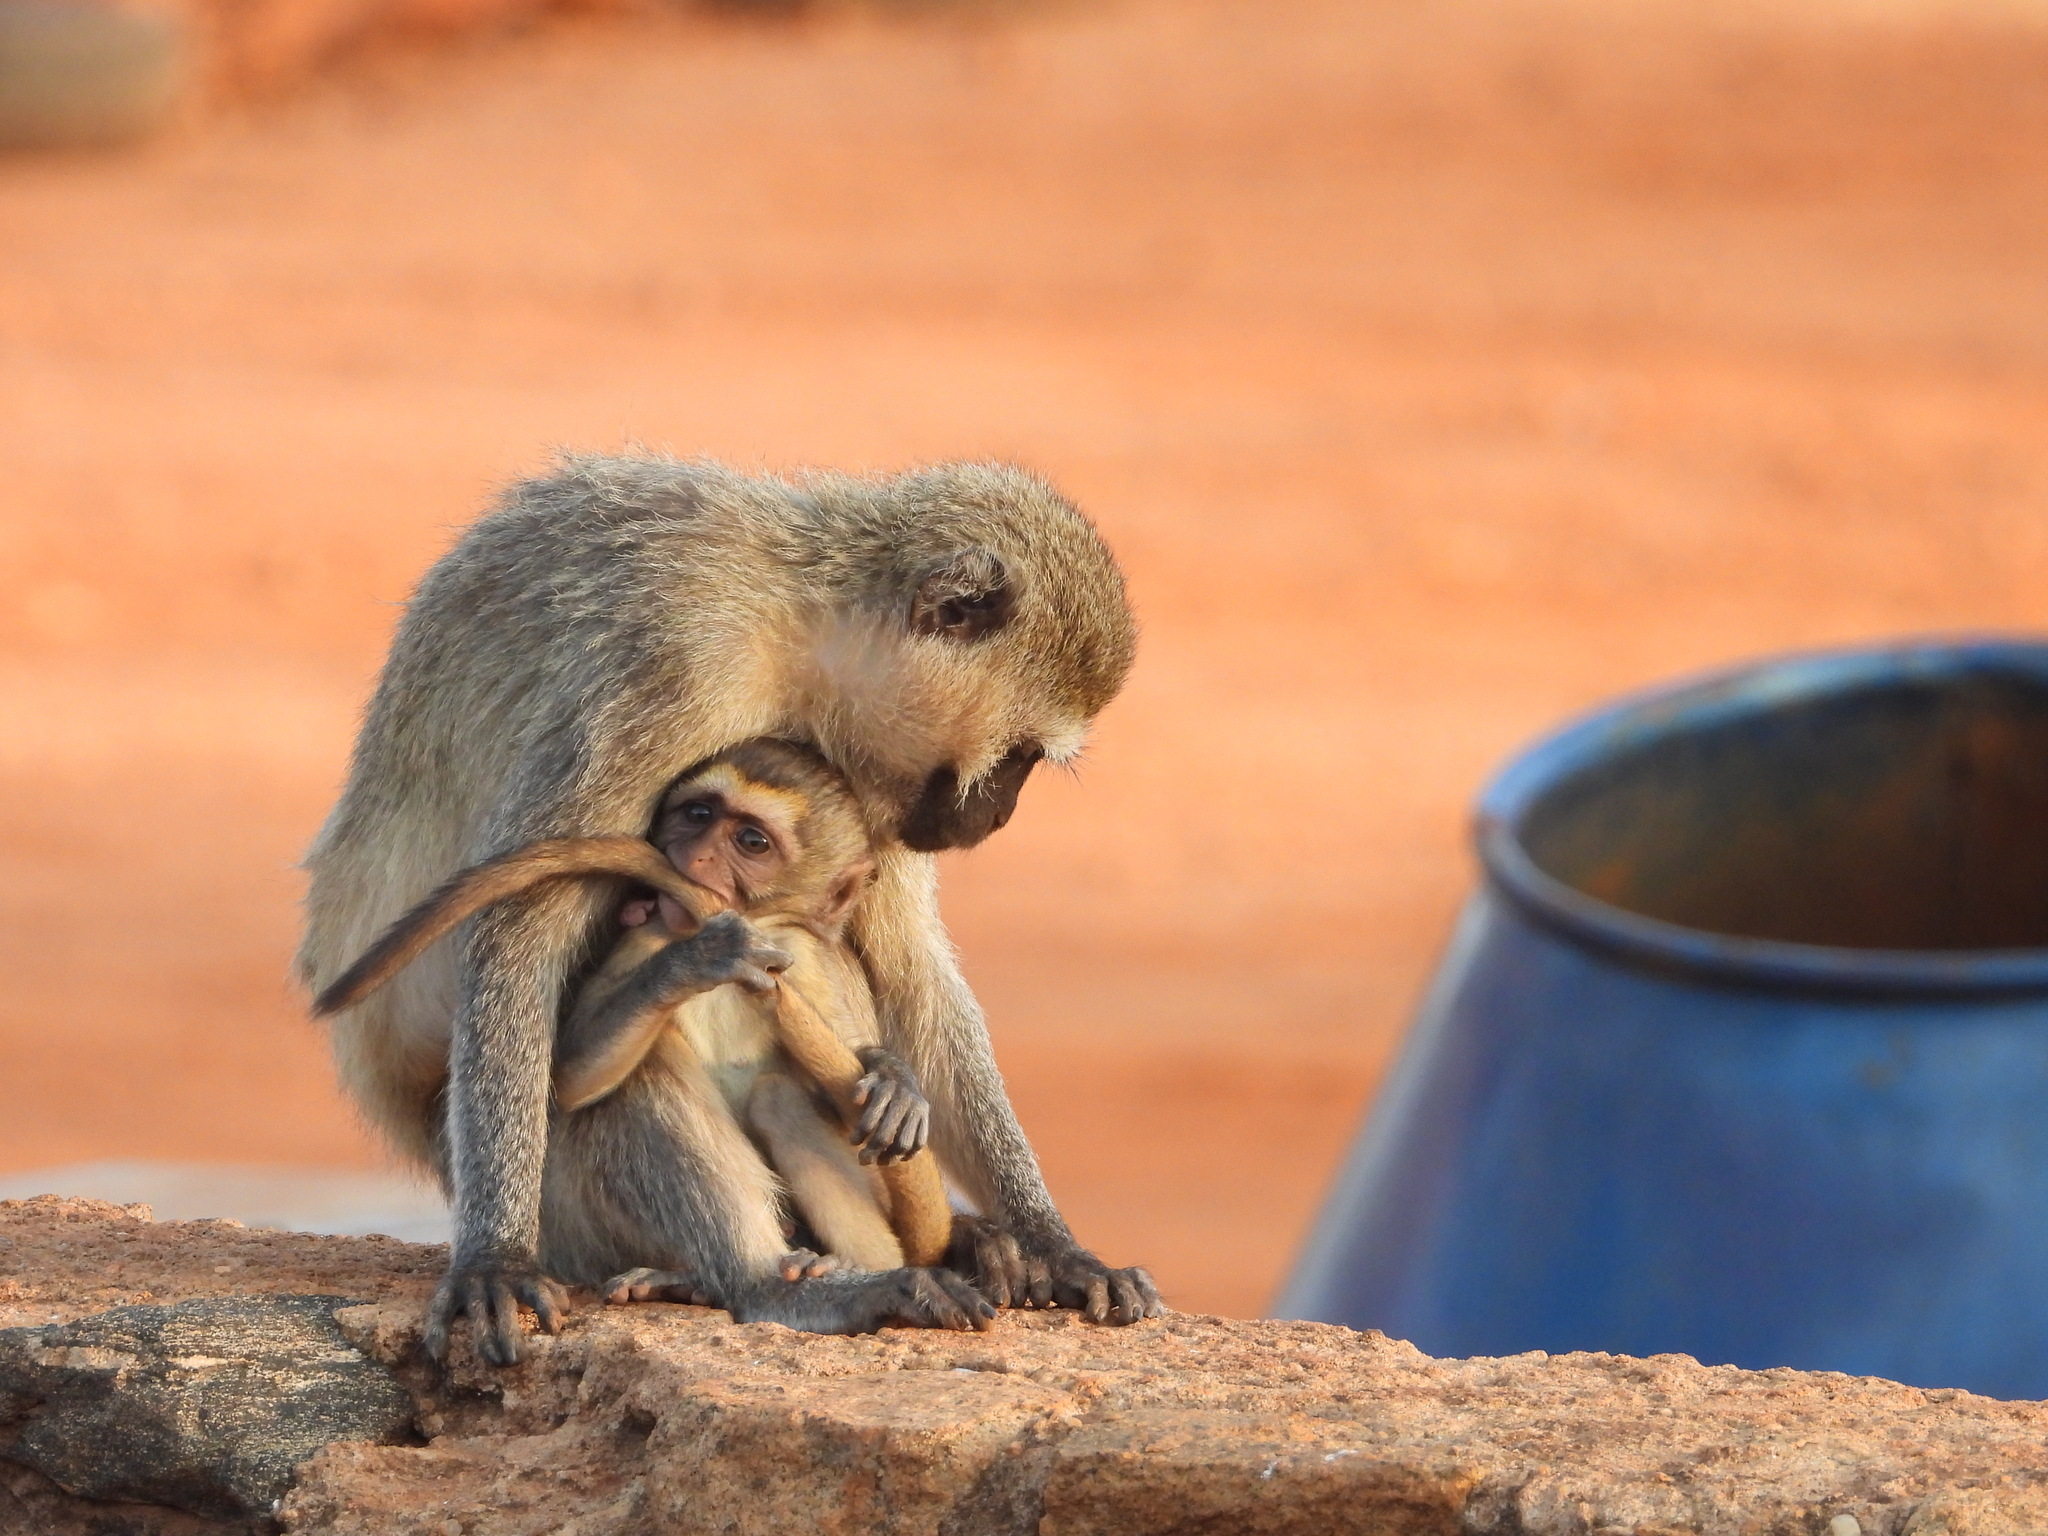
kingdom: Animalia
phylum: Chordata
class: Mammalia
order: Primates
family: Cercopithecidae
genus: Chlorocebus
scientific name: Chlorocebus pygerythrus
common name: Vervet monkey
